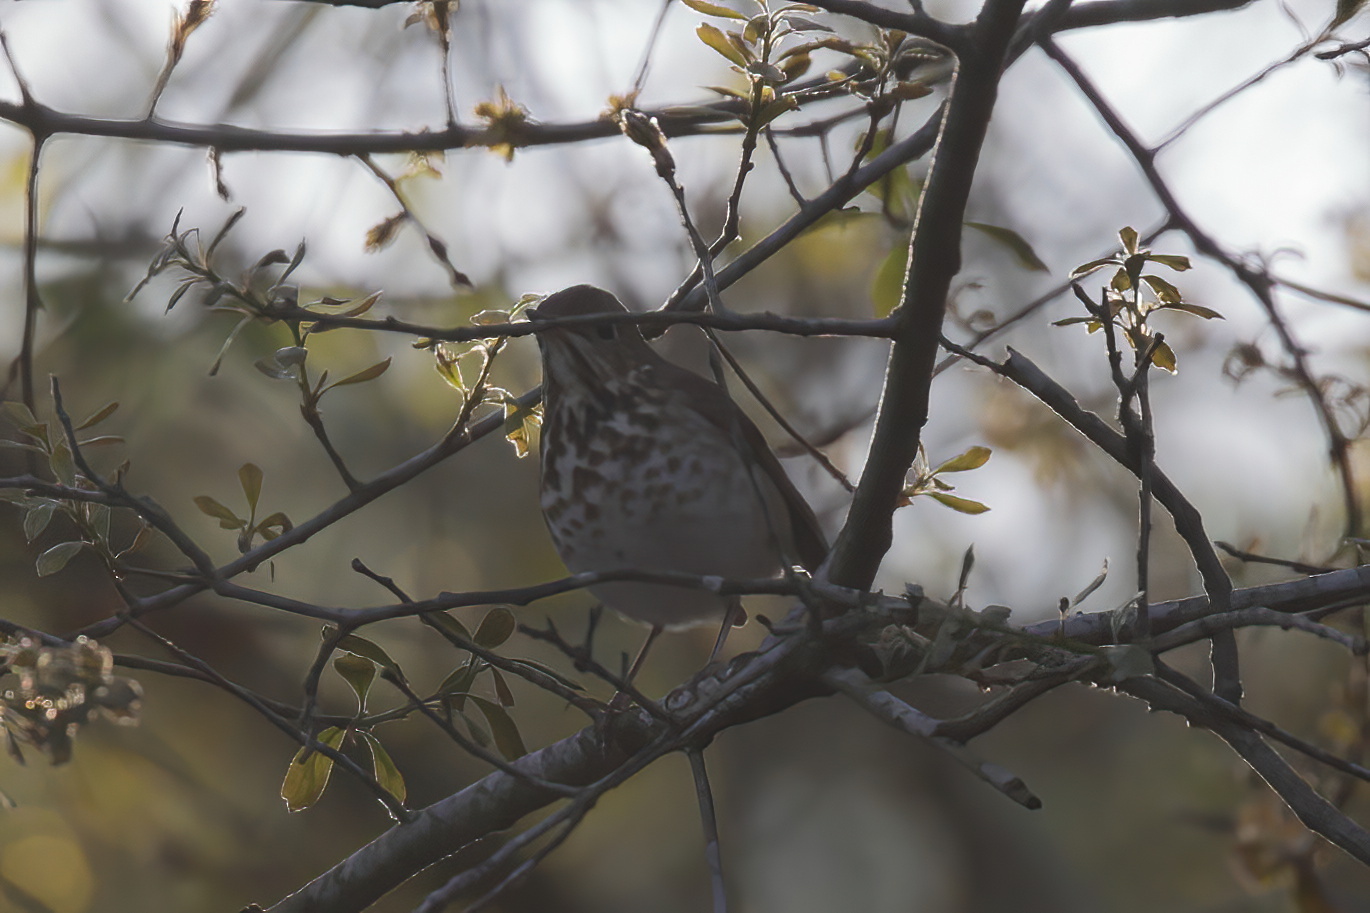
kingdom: Animalia
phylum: Chordata
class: Aves
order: Passeriformes
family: Turdidae
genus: Catharus
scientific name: Catharus guttatus
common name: Hermit thrush
